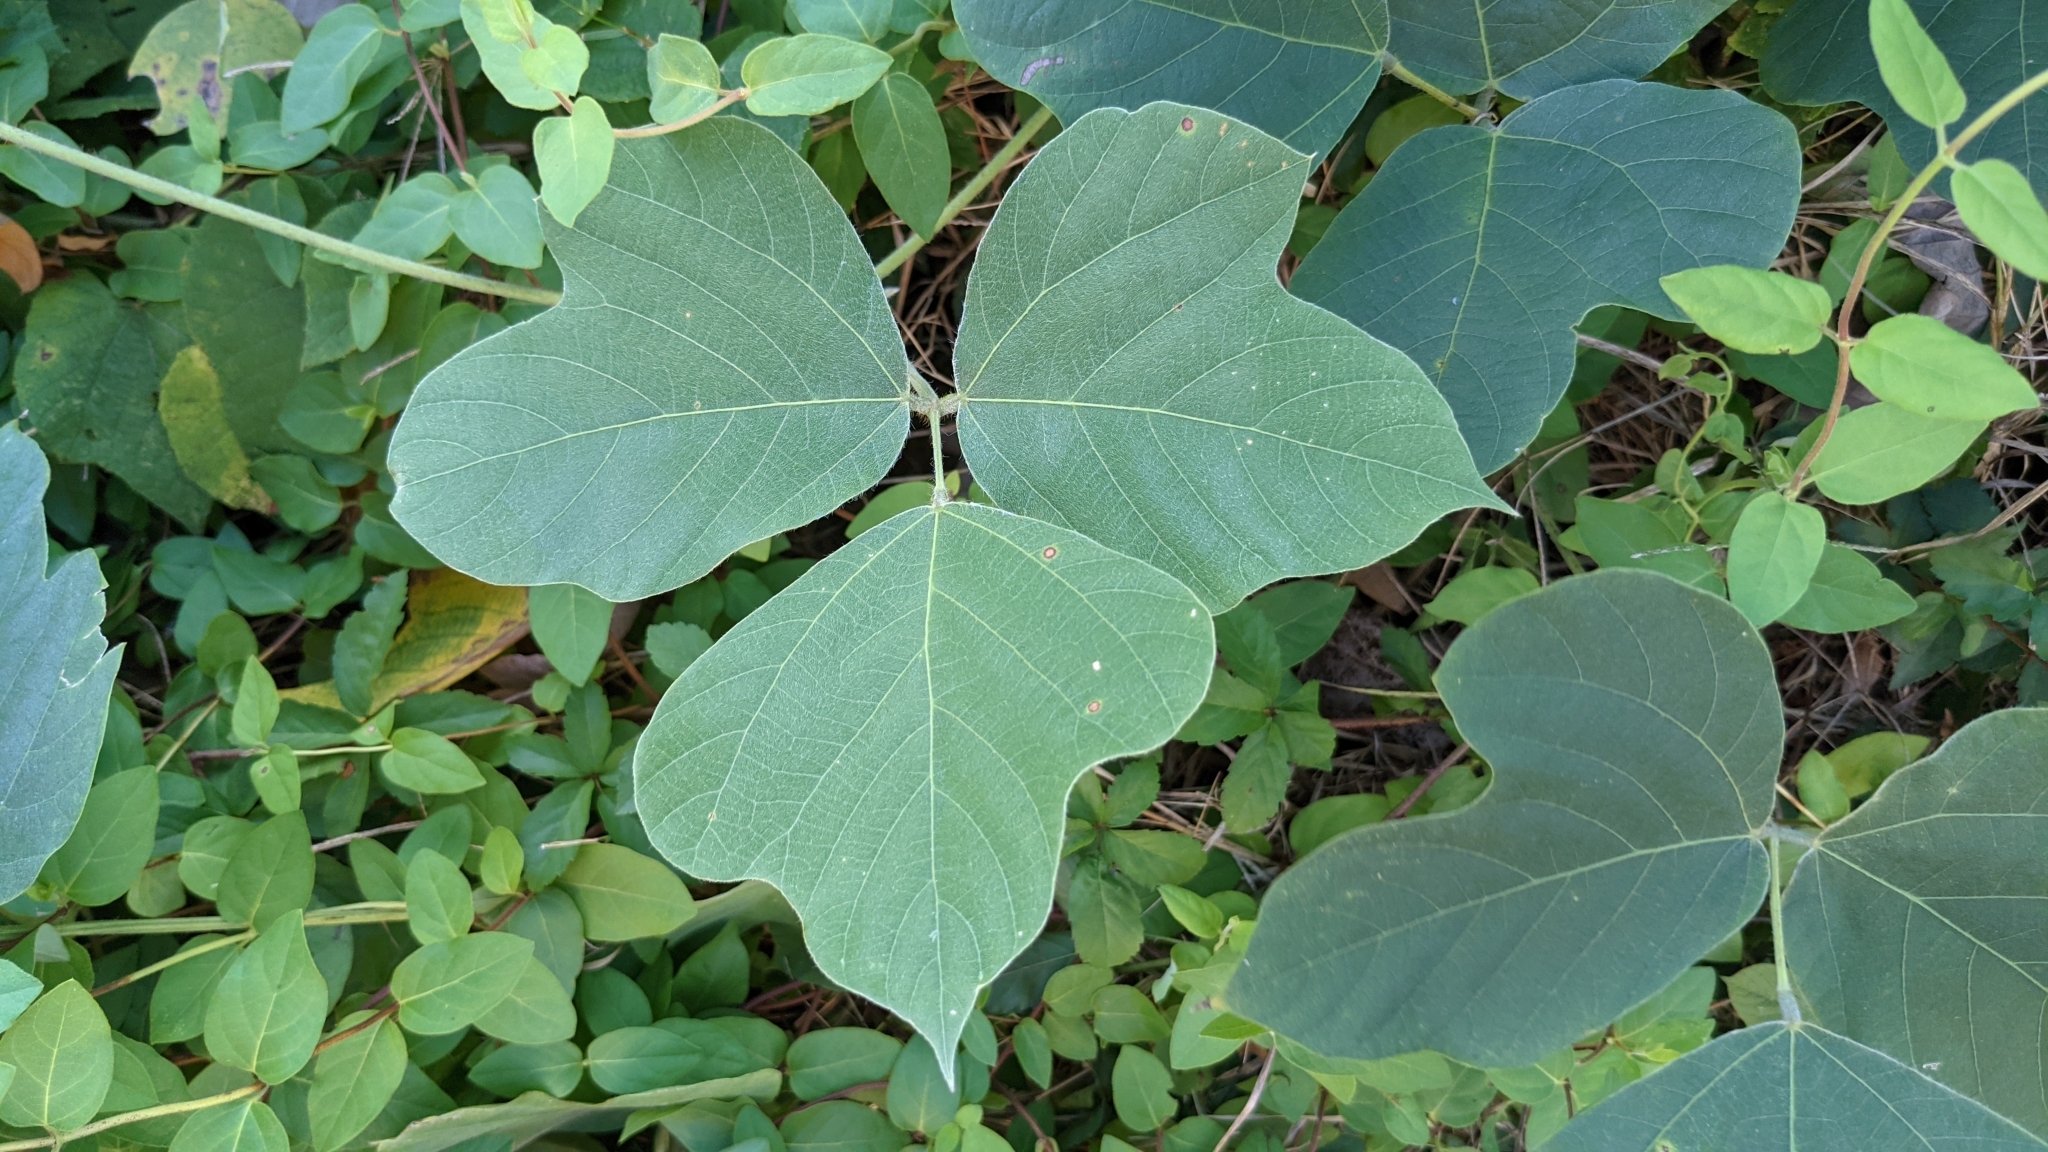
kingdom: Plantae
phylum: Tracheophyta
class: Magnoliopsida
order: Fabales
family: Fabaceae
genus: Pueraria
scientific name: Pueraria montana
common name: Kudzu
